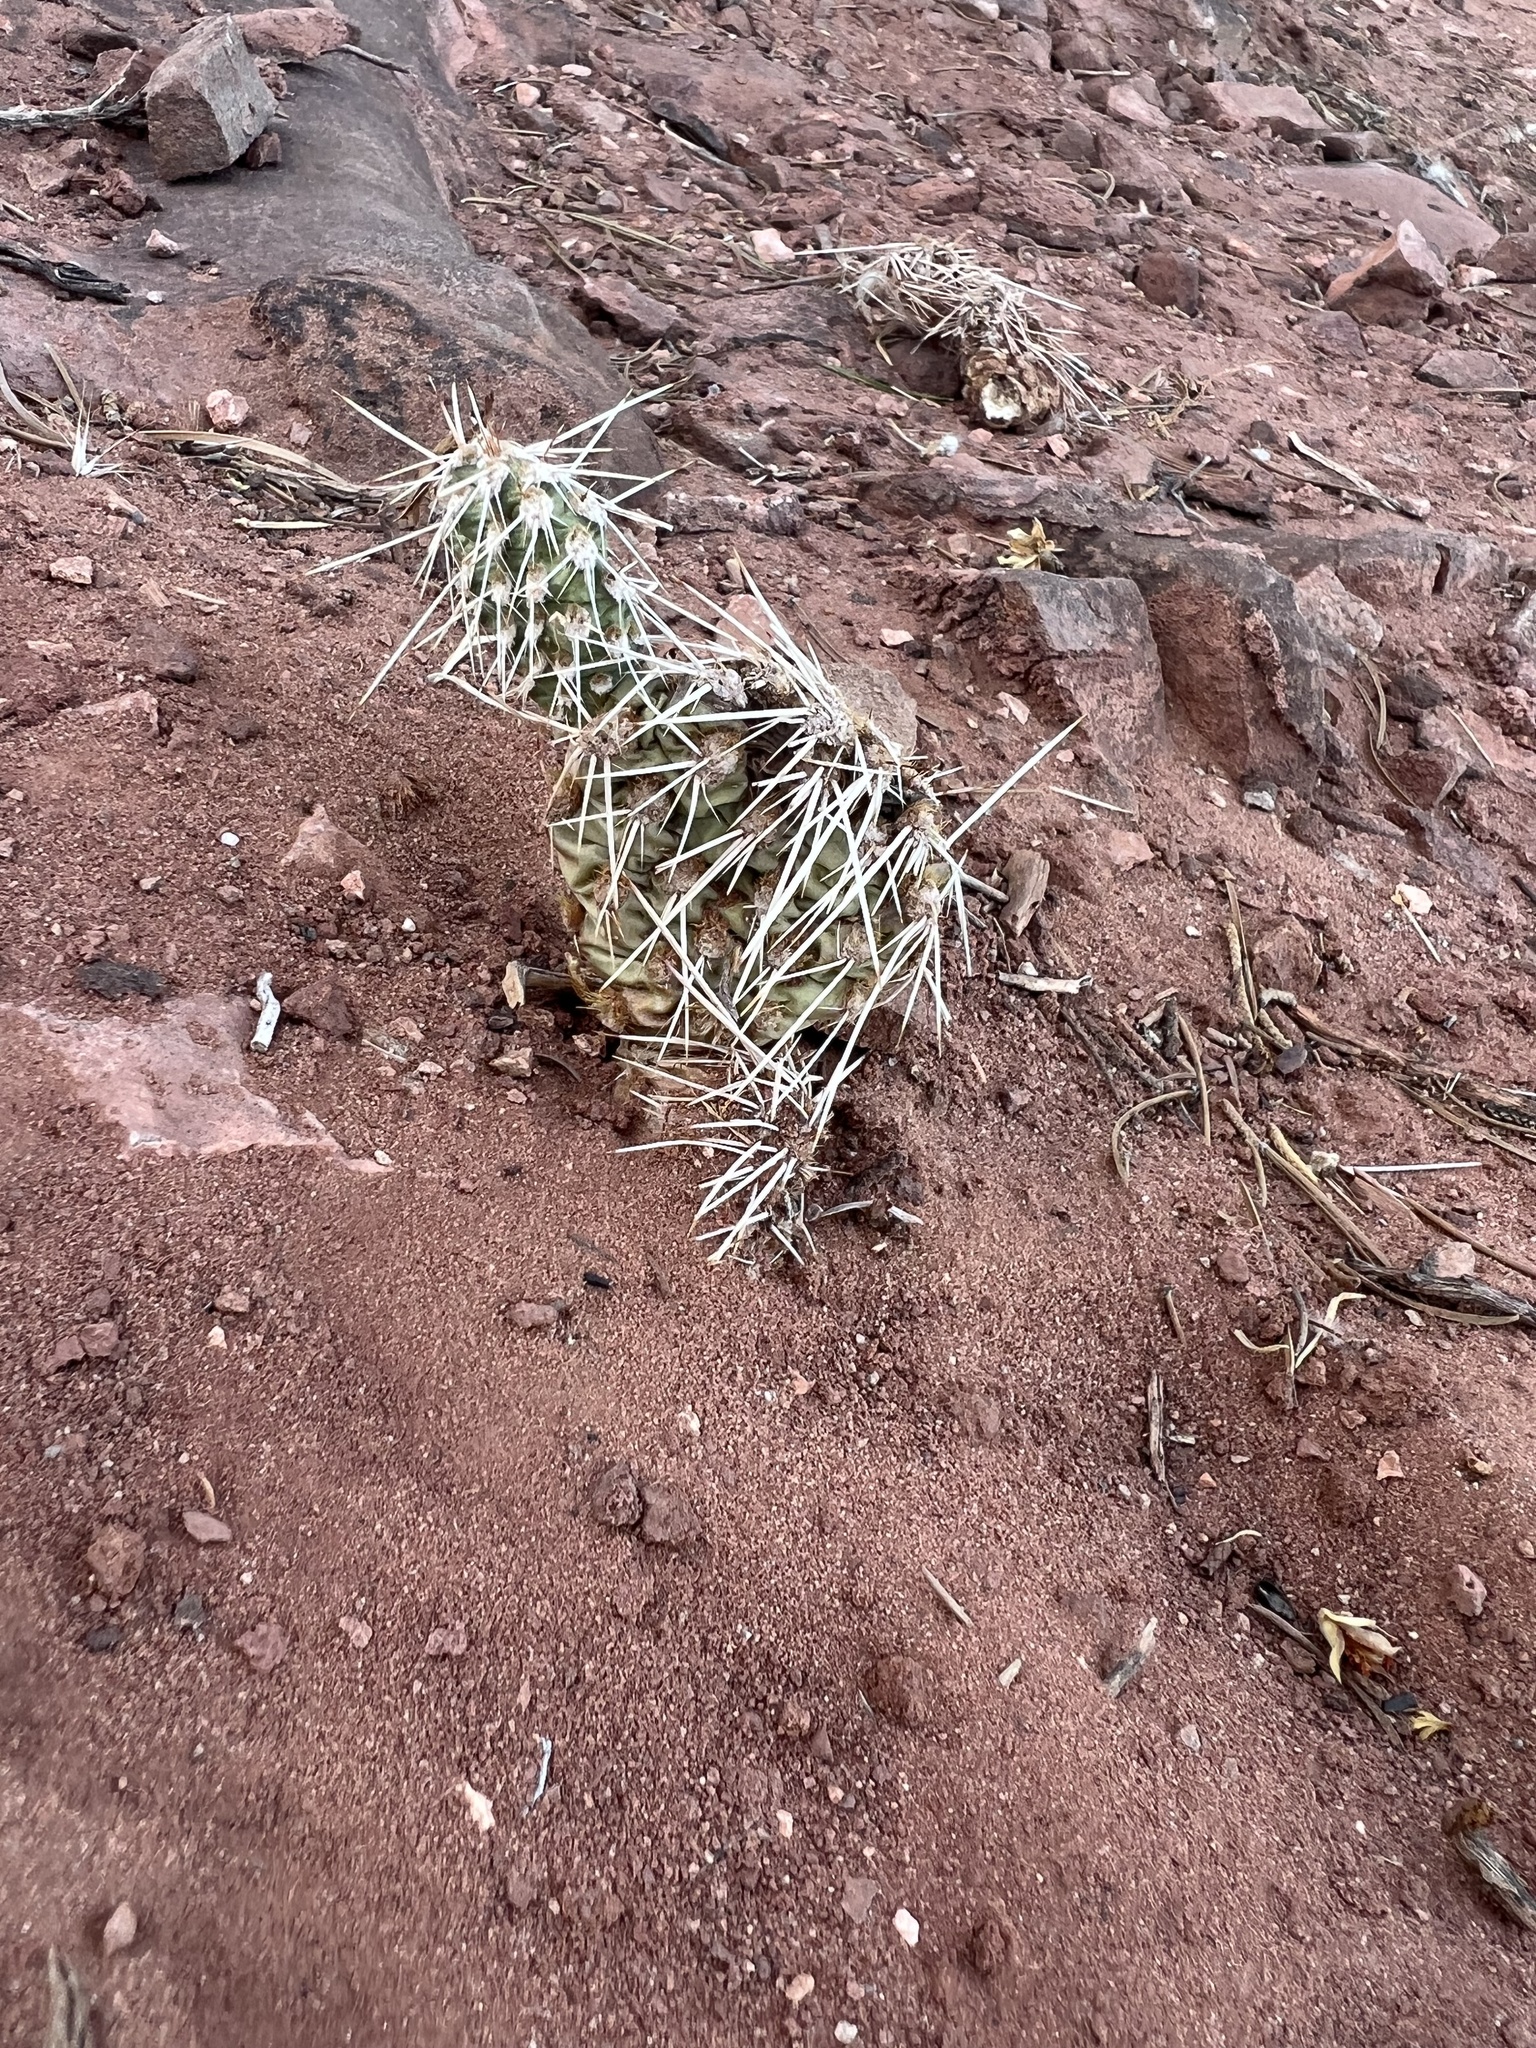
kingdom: Plantae
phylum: Tracheophyta
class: Magnoliopsida
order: Caryophyllales
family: Cactaceae
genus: Opuntia
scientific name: Opuntia polyacantha
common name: Plains prickly-pear
